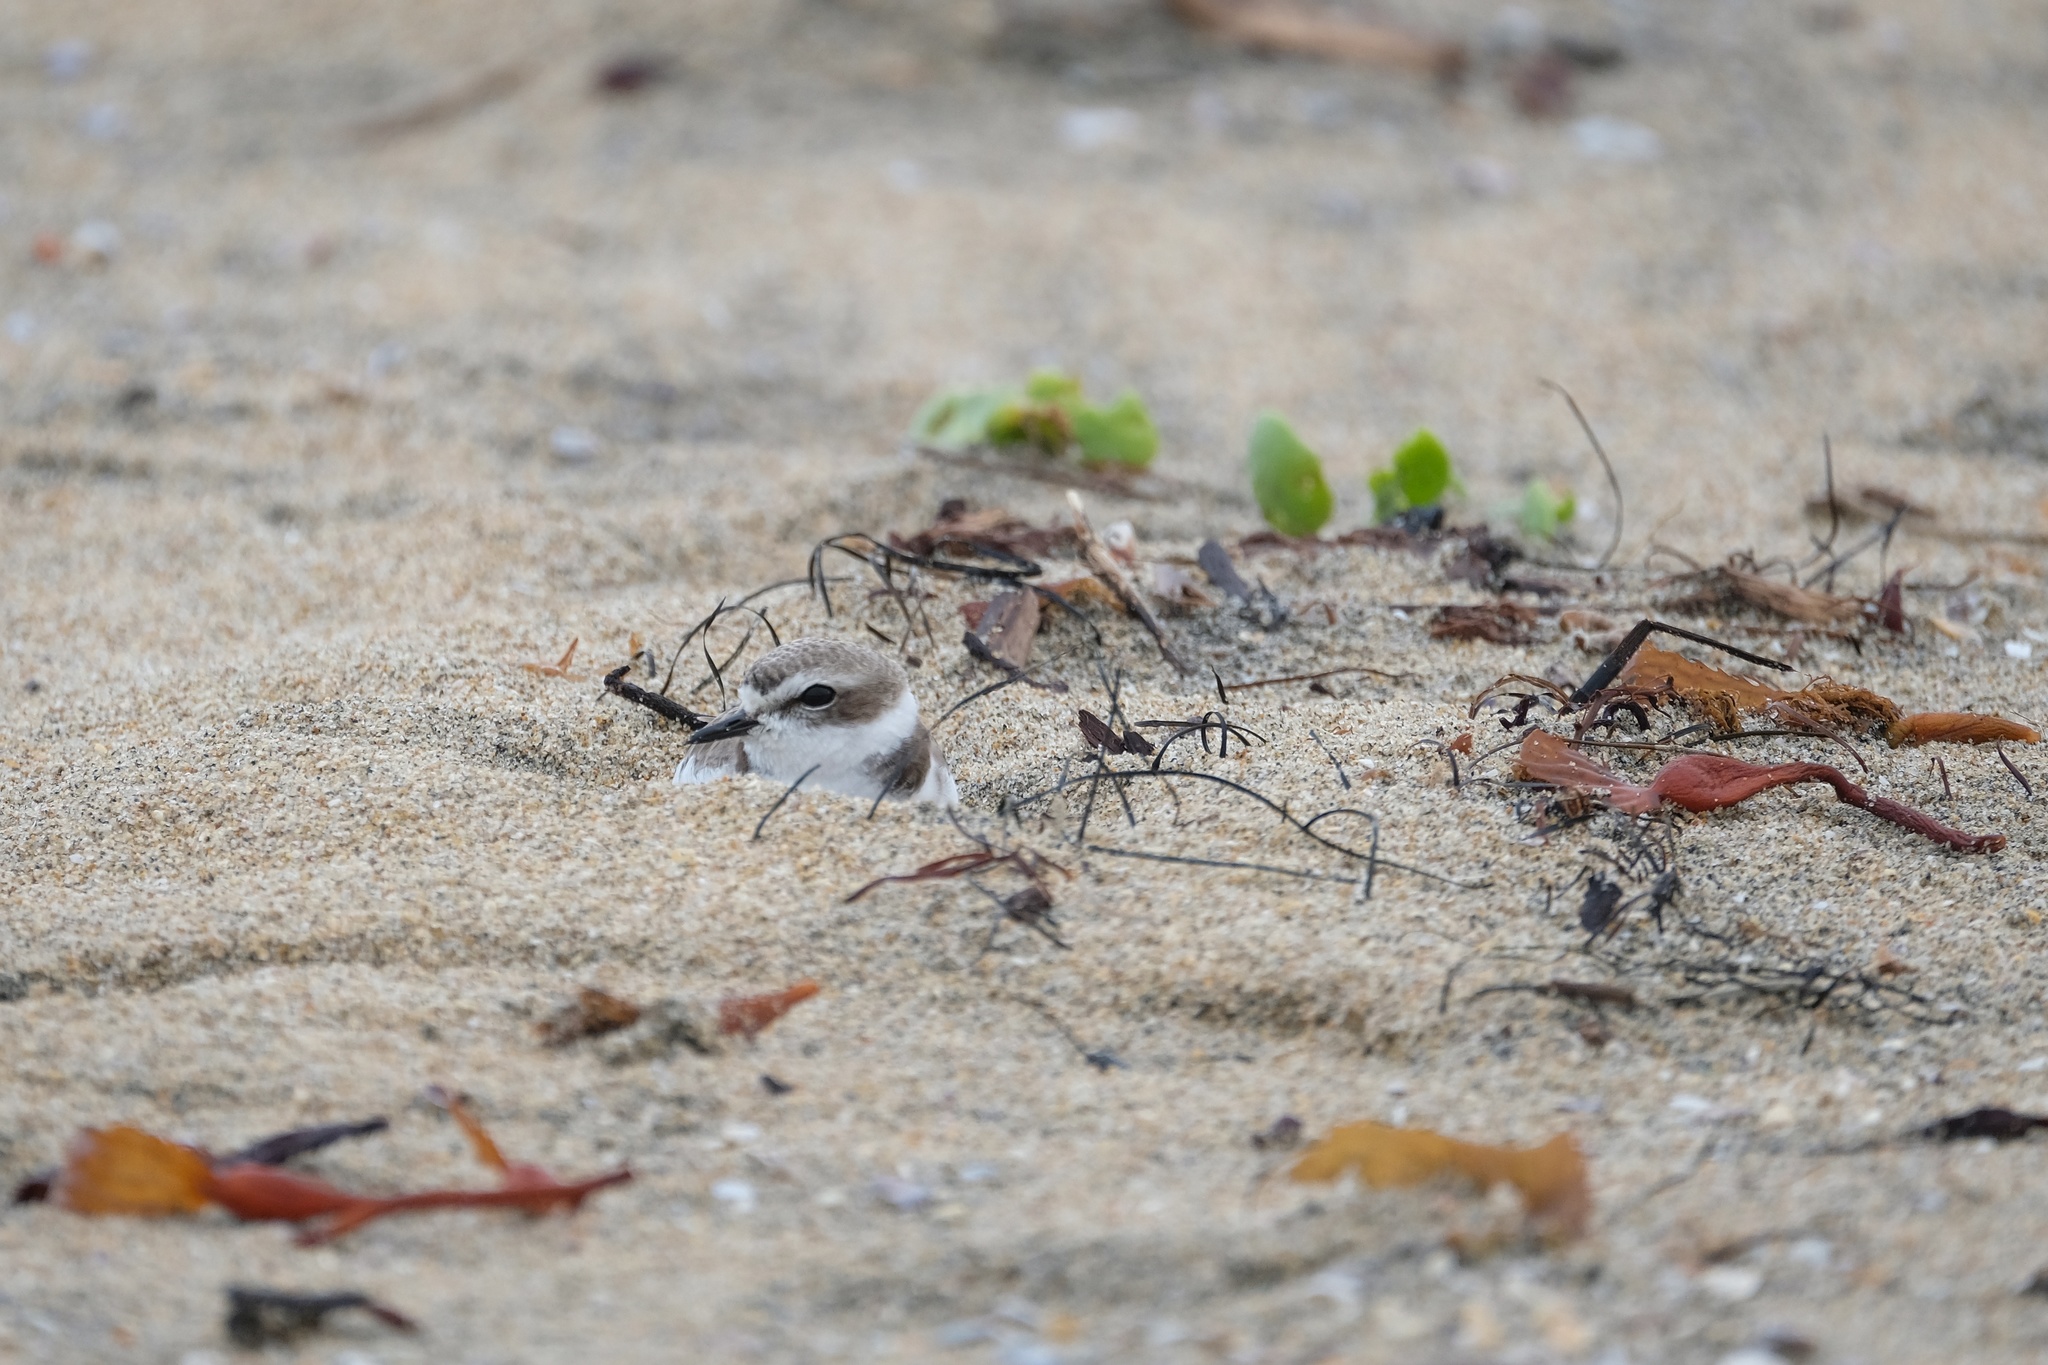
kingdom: Animalia
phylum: Chordata
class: Aves
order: Charadriiformes
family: Charadriidae
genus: Anarhynchus
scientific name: Anarhynchus
